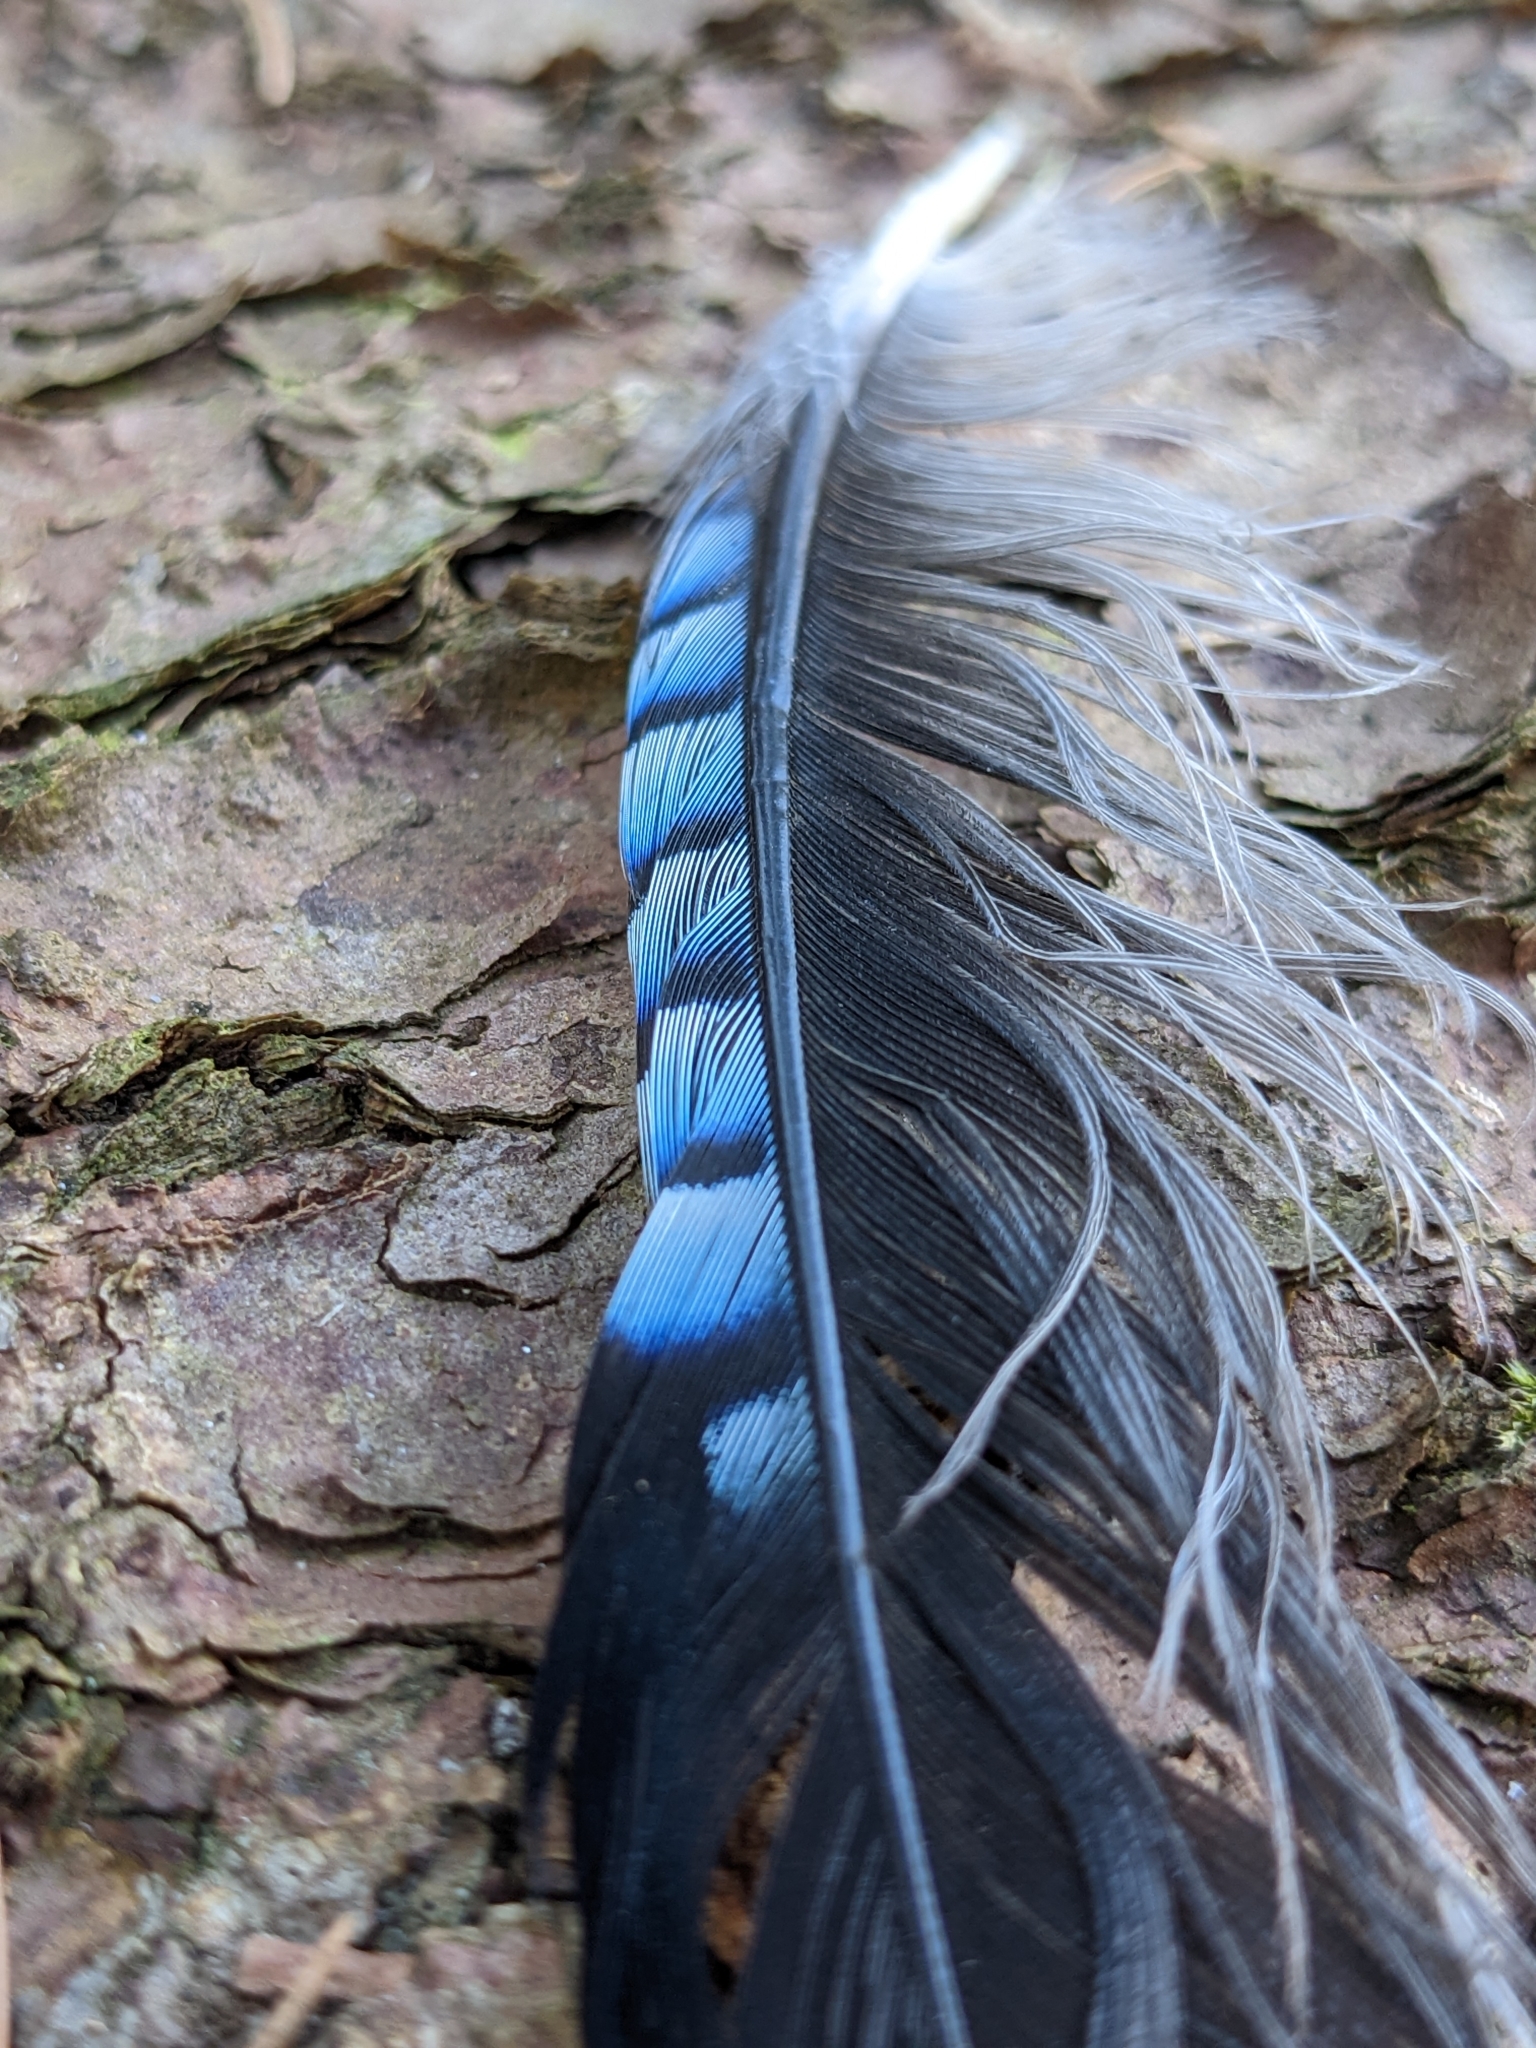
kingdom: Animalia
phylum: Chordata
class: Aves
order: Passeriformes
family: Corvidae
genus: Garrulus
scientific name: Garrulus glandarius
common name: Eurasian jay
